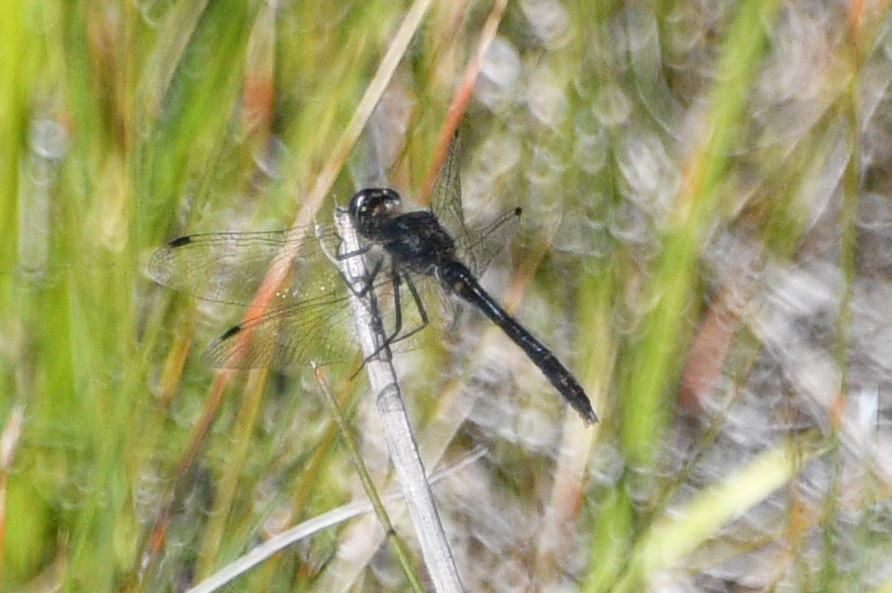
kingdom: Animalia
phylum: Arthropoda
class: Insecta
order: Odonata
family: Libellulidae
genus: Sympetrum
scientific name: Sympetrum danae
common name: Black darter
